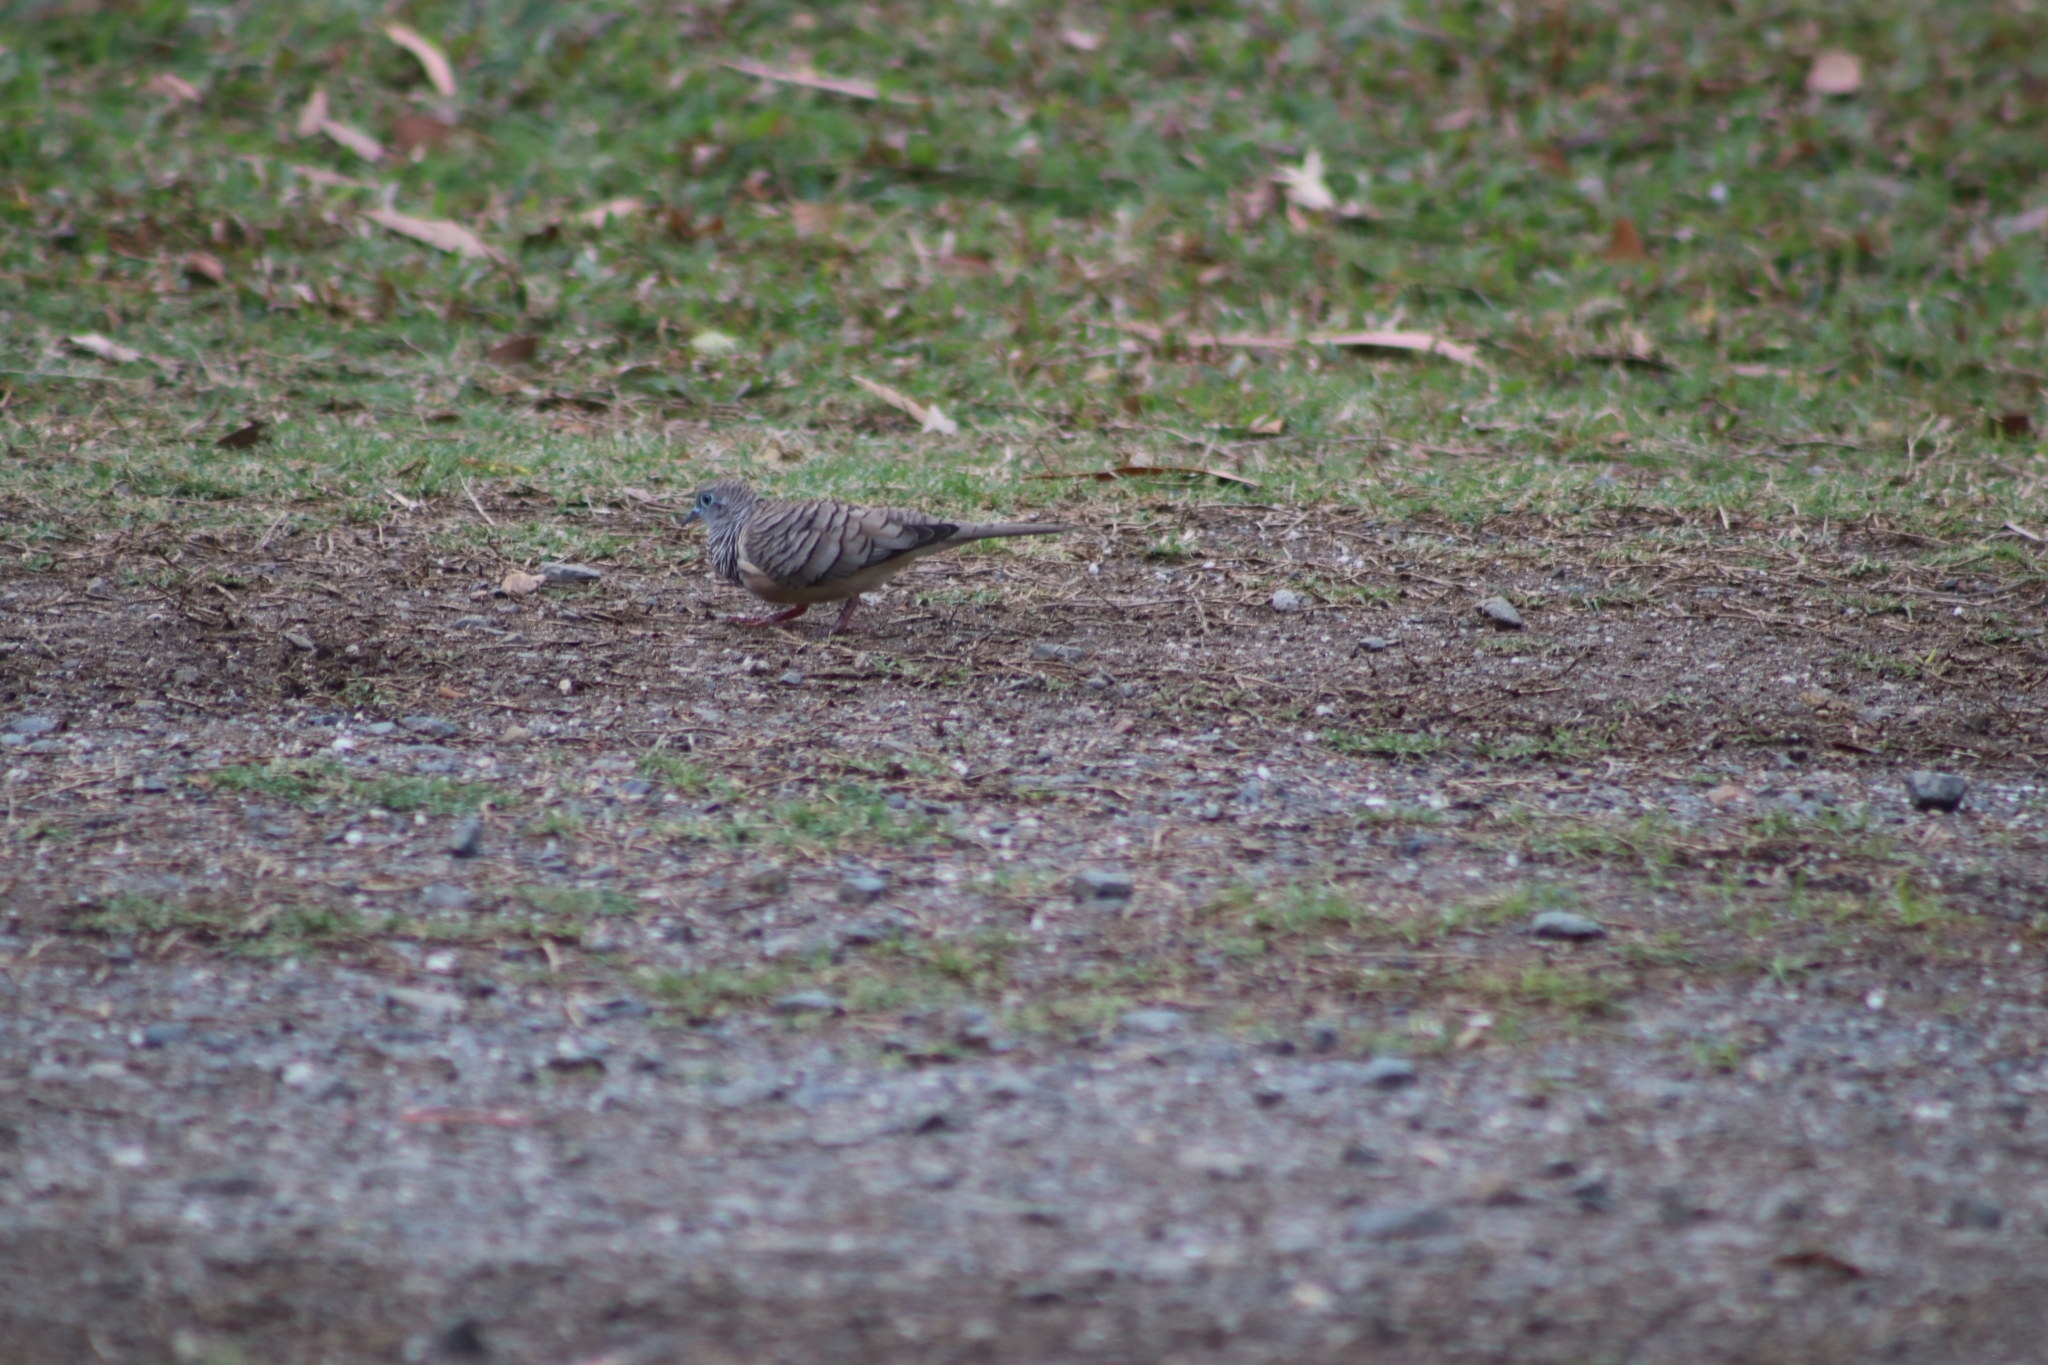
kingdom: Animalia
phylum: Chordata
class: Aves
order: Columbiformes
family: Columbidae
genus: Geopelia
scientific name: Geopelia placida
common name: Peaceful dove
